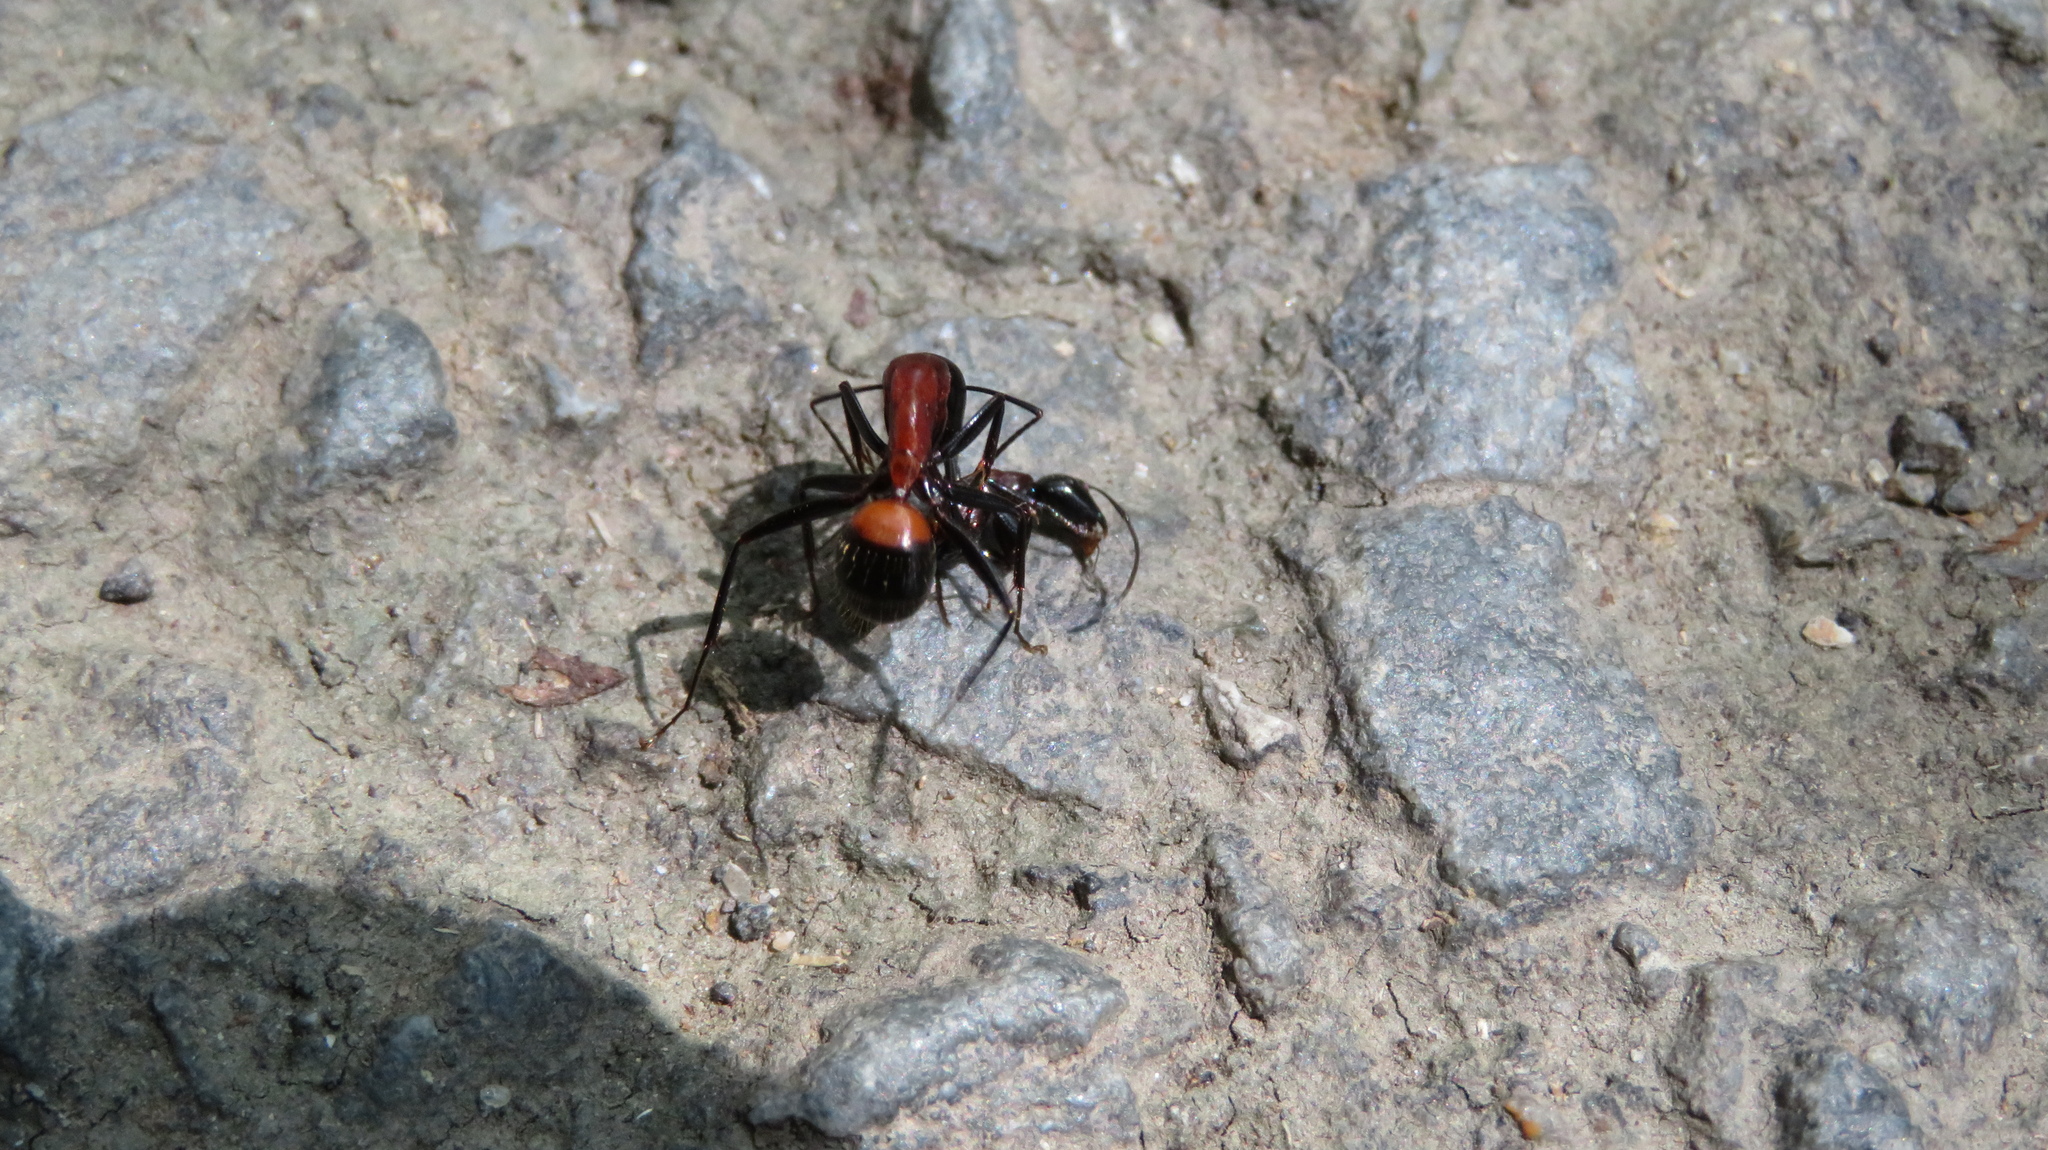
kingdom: Animalia
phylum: Arthropoda
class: Insecta
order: Hymenoptera
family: Formicidae
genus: Camponotus
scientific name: Camponotus obscuripes
